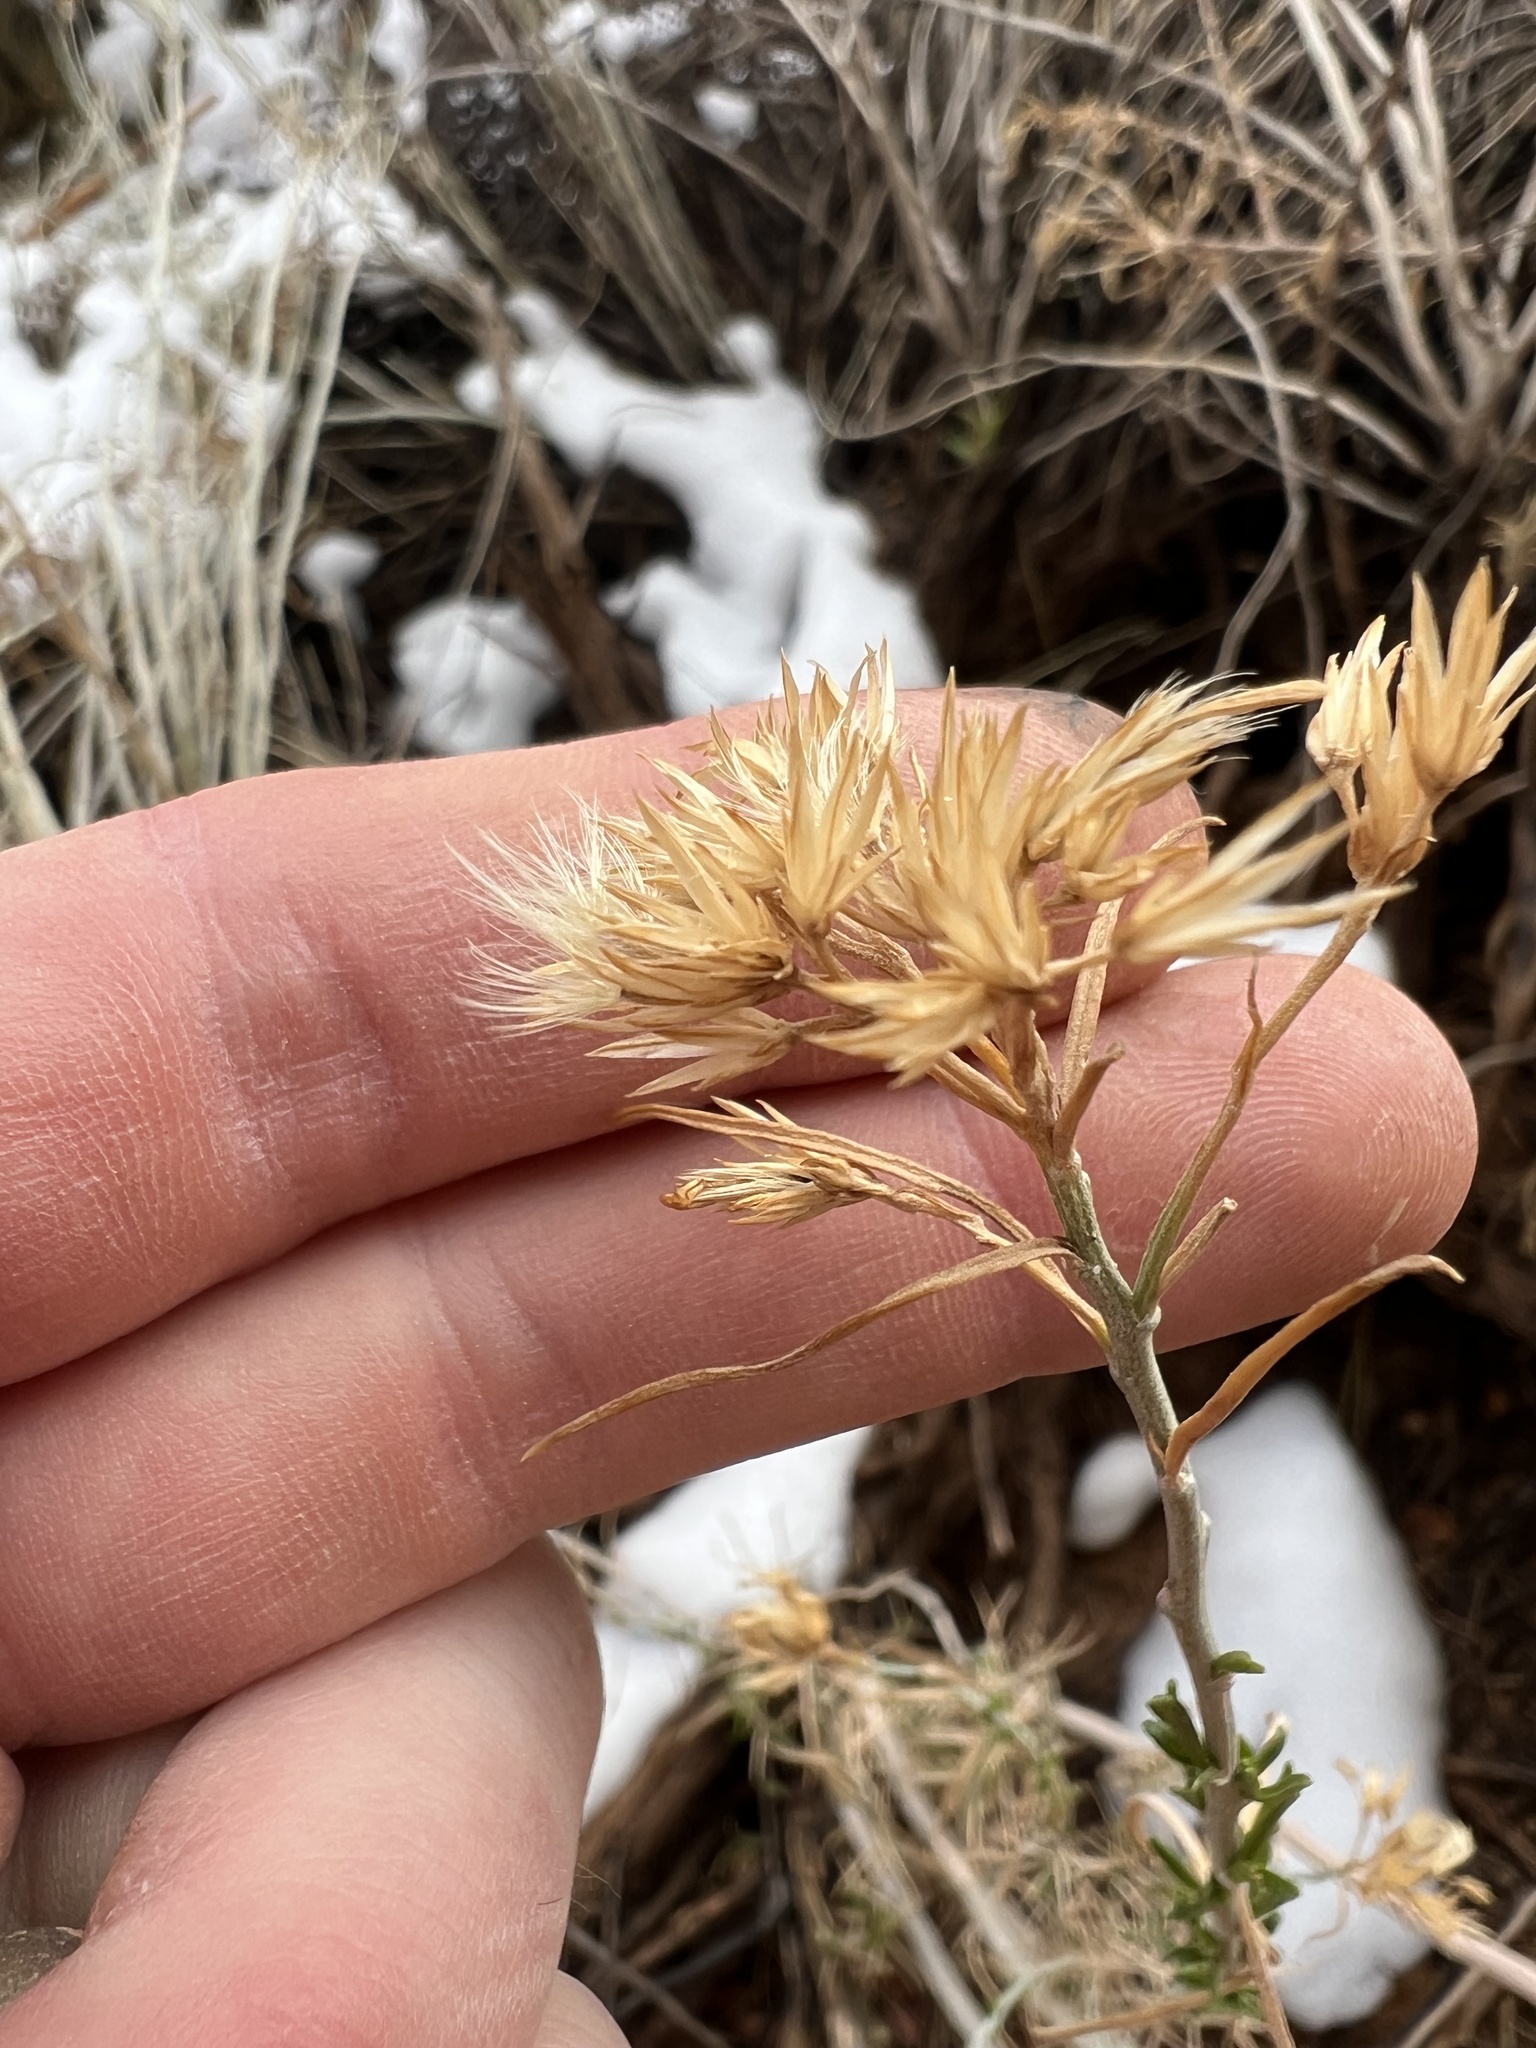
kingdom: Animalia
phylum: Arthropoda
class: Insecta
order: Diptera
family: Cecidomyiidae
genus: Rhopalomyia
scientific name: Rhopalomyia utahensis
